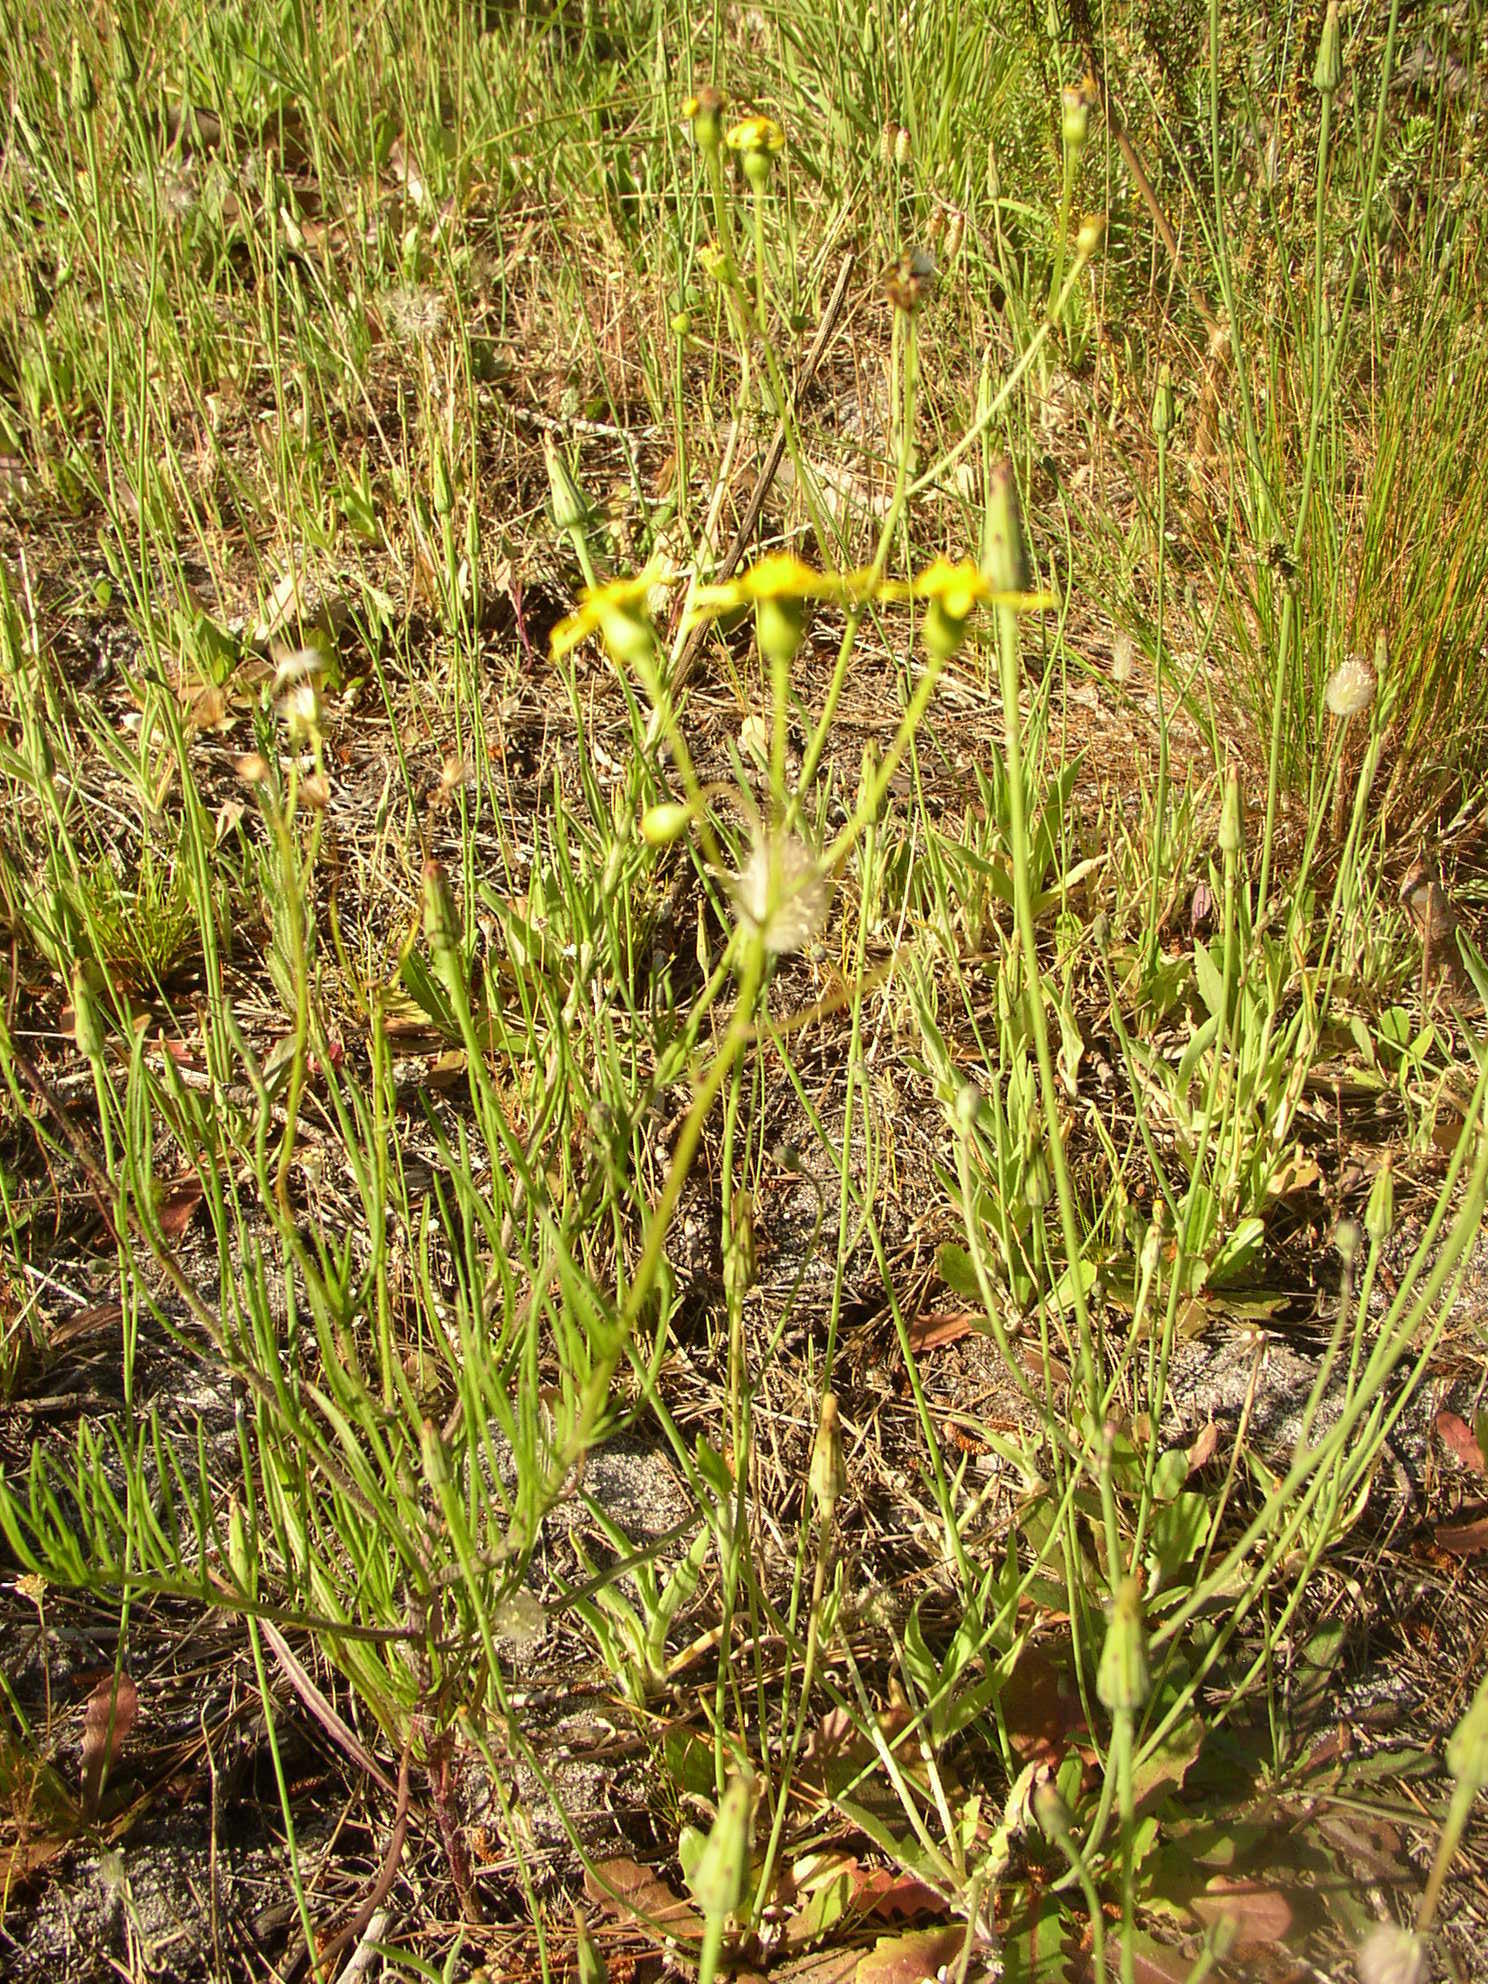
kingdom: Plantae
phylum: Tracheophyta
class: Magnoliopsida
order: Asterales
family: Asteraceae
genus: Senecio
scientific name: Senecio burchellii
